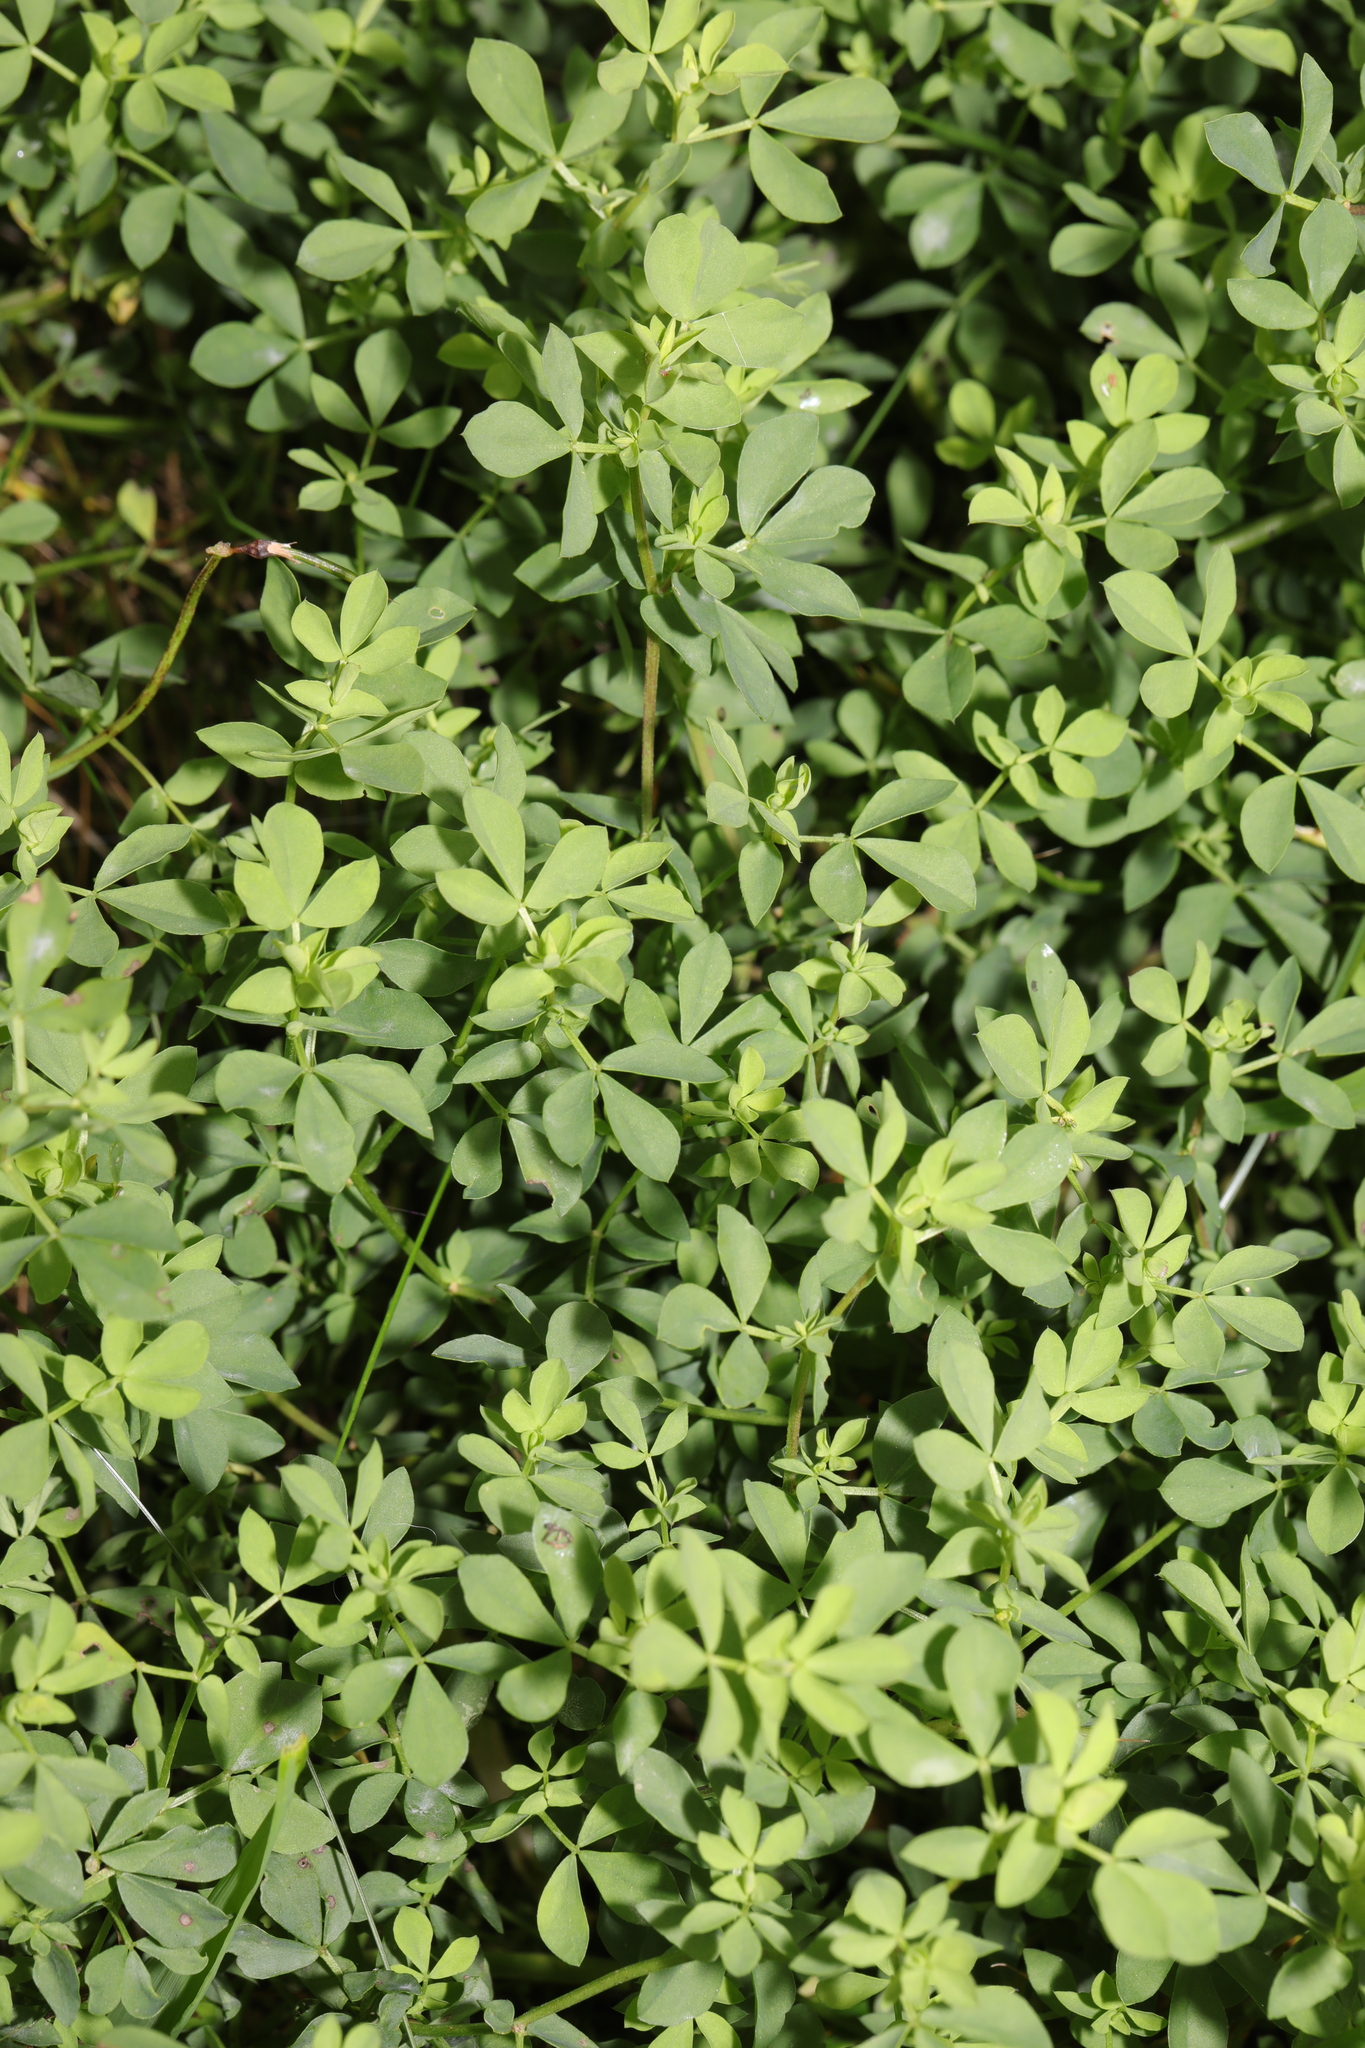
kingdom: Plantae
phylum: Tracheophyta
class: Magnoliopsida
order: Fabales
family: Fabaceae
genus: Lotus
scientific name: Lotus corniculatus
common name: Common bird's-foot-trefoil
